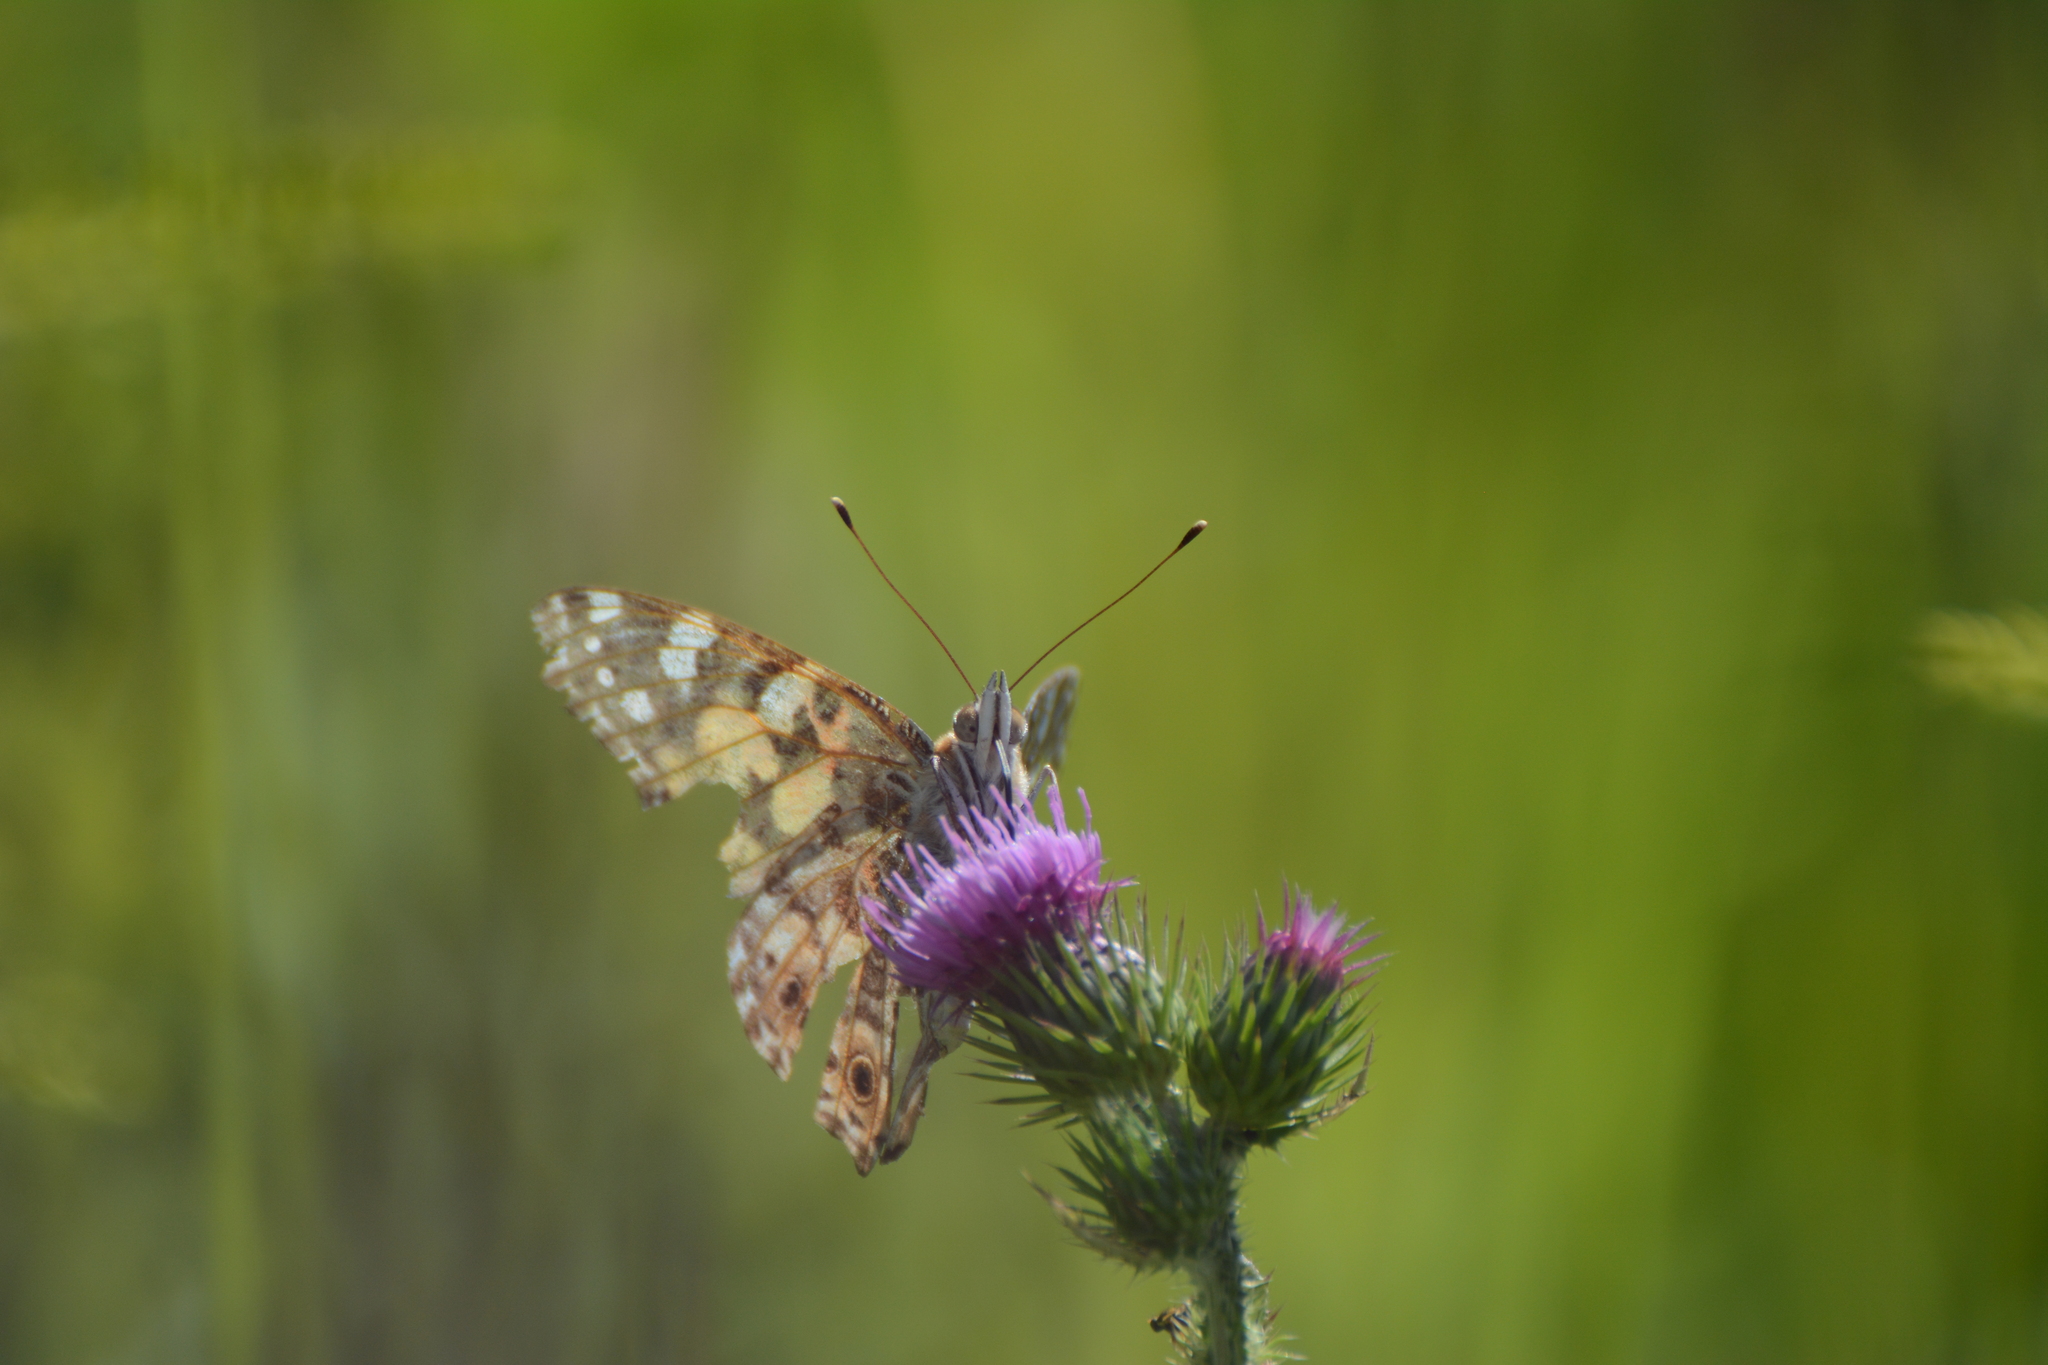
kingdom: Animalia
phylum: Arthropoda
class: Insecta
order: Lepidoptera
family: Nymphalidae
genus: Vanessa
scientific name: Vanessa cardui
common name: Painted lady
